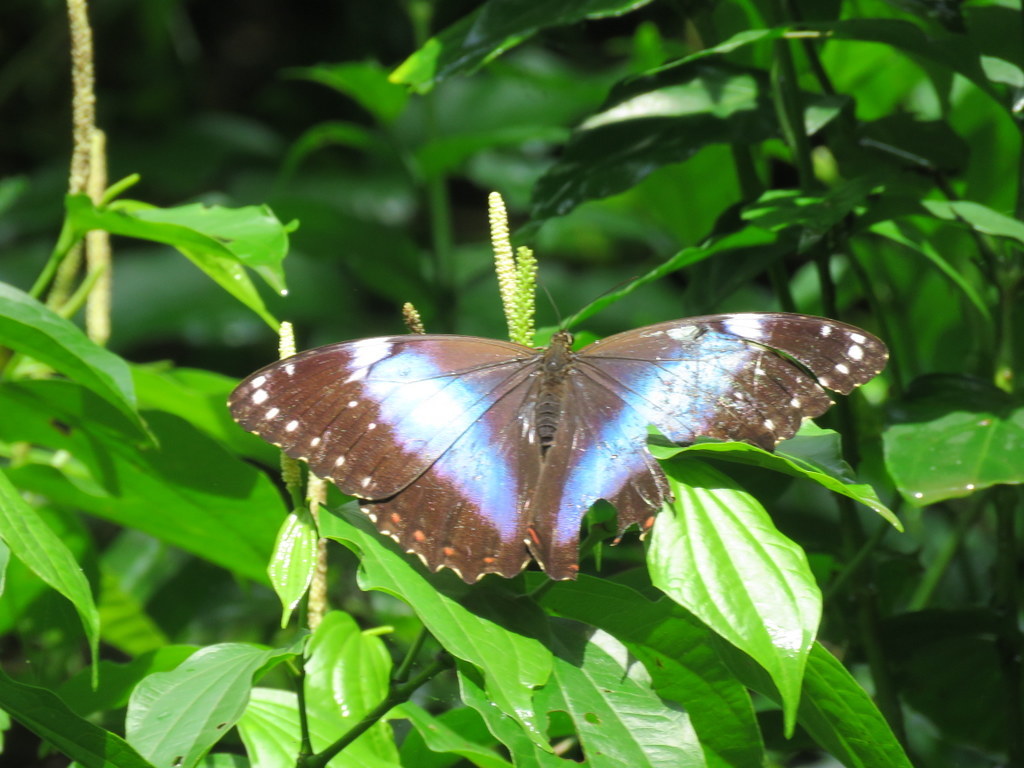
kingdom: Animalia
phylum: Arthropoda
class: Insecta
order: Lepidoptera
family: Nymphalidae
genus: Morpho
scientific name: Morpho helenor
